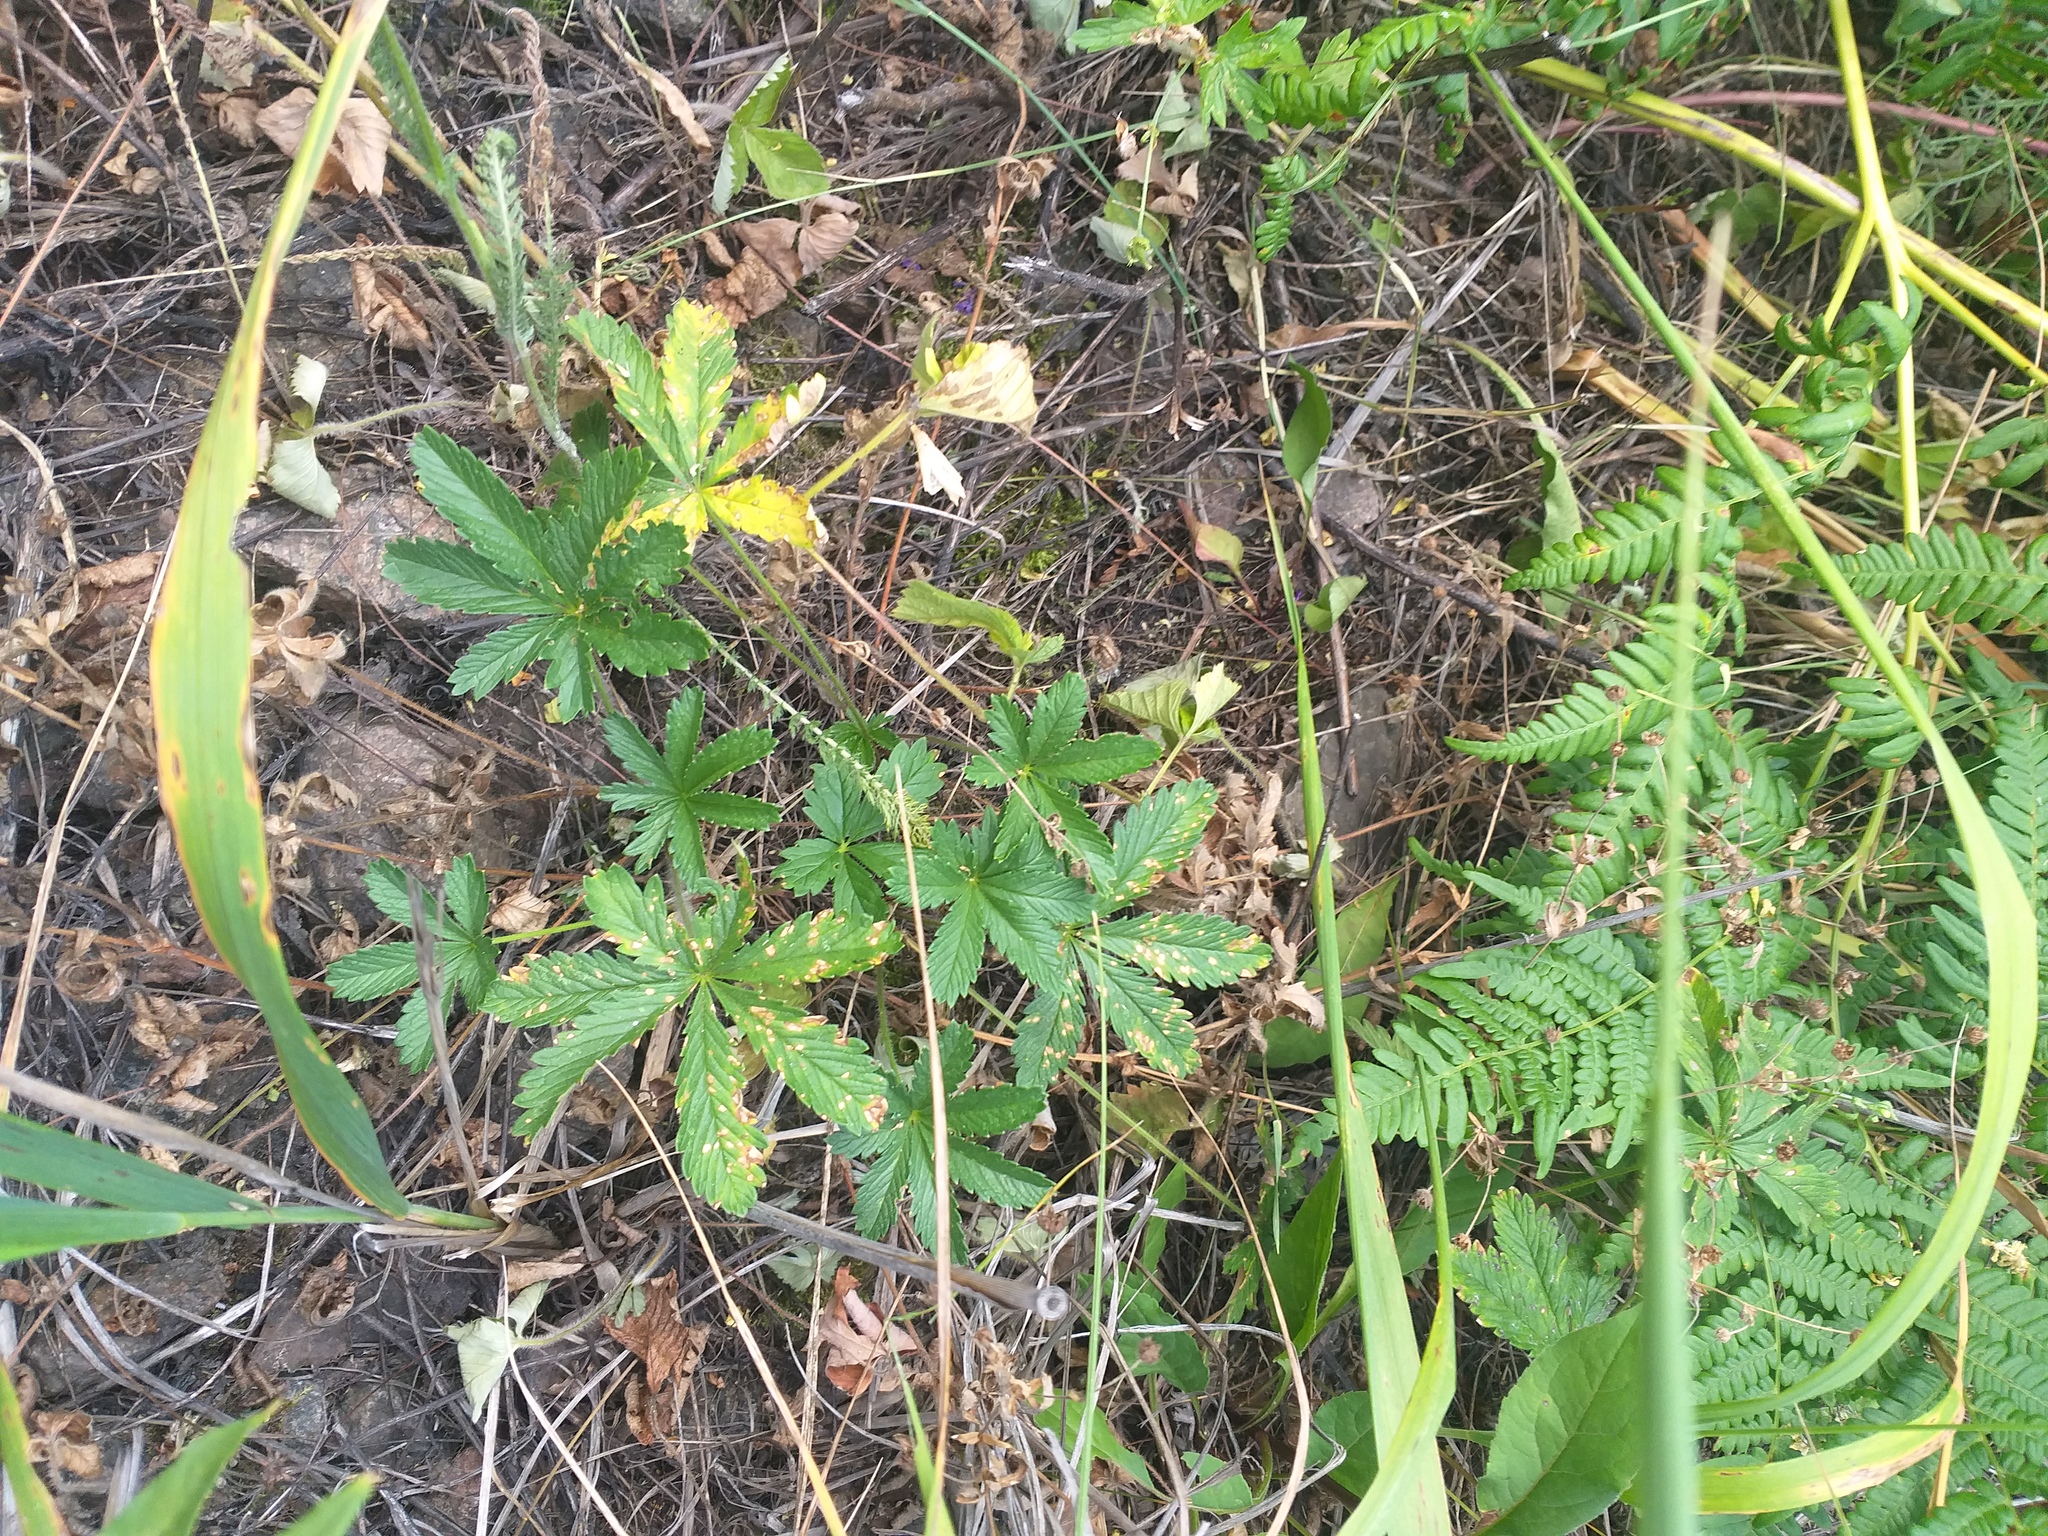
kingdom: Plantae
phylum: Tracheophyta
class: Magnoliopsida
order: Rosales
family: Rosaceae
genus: Potentilla
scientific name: Potentilla thuringiaca
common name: European cinquefoil
